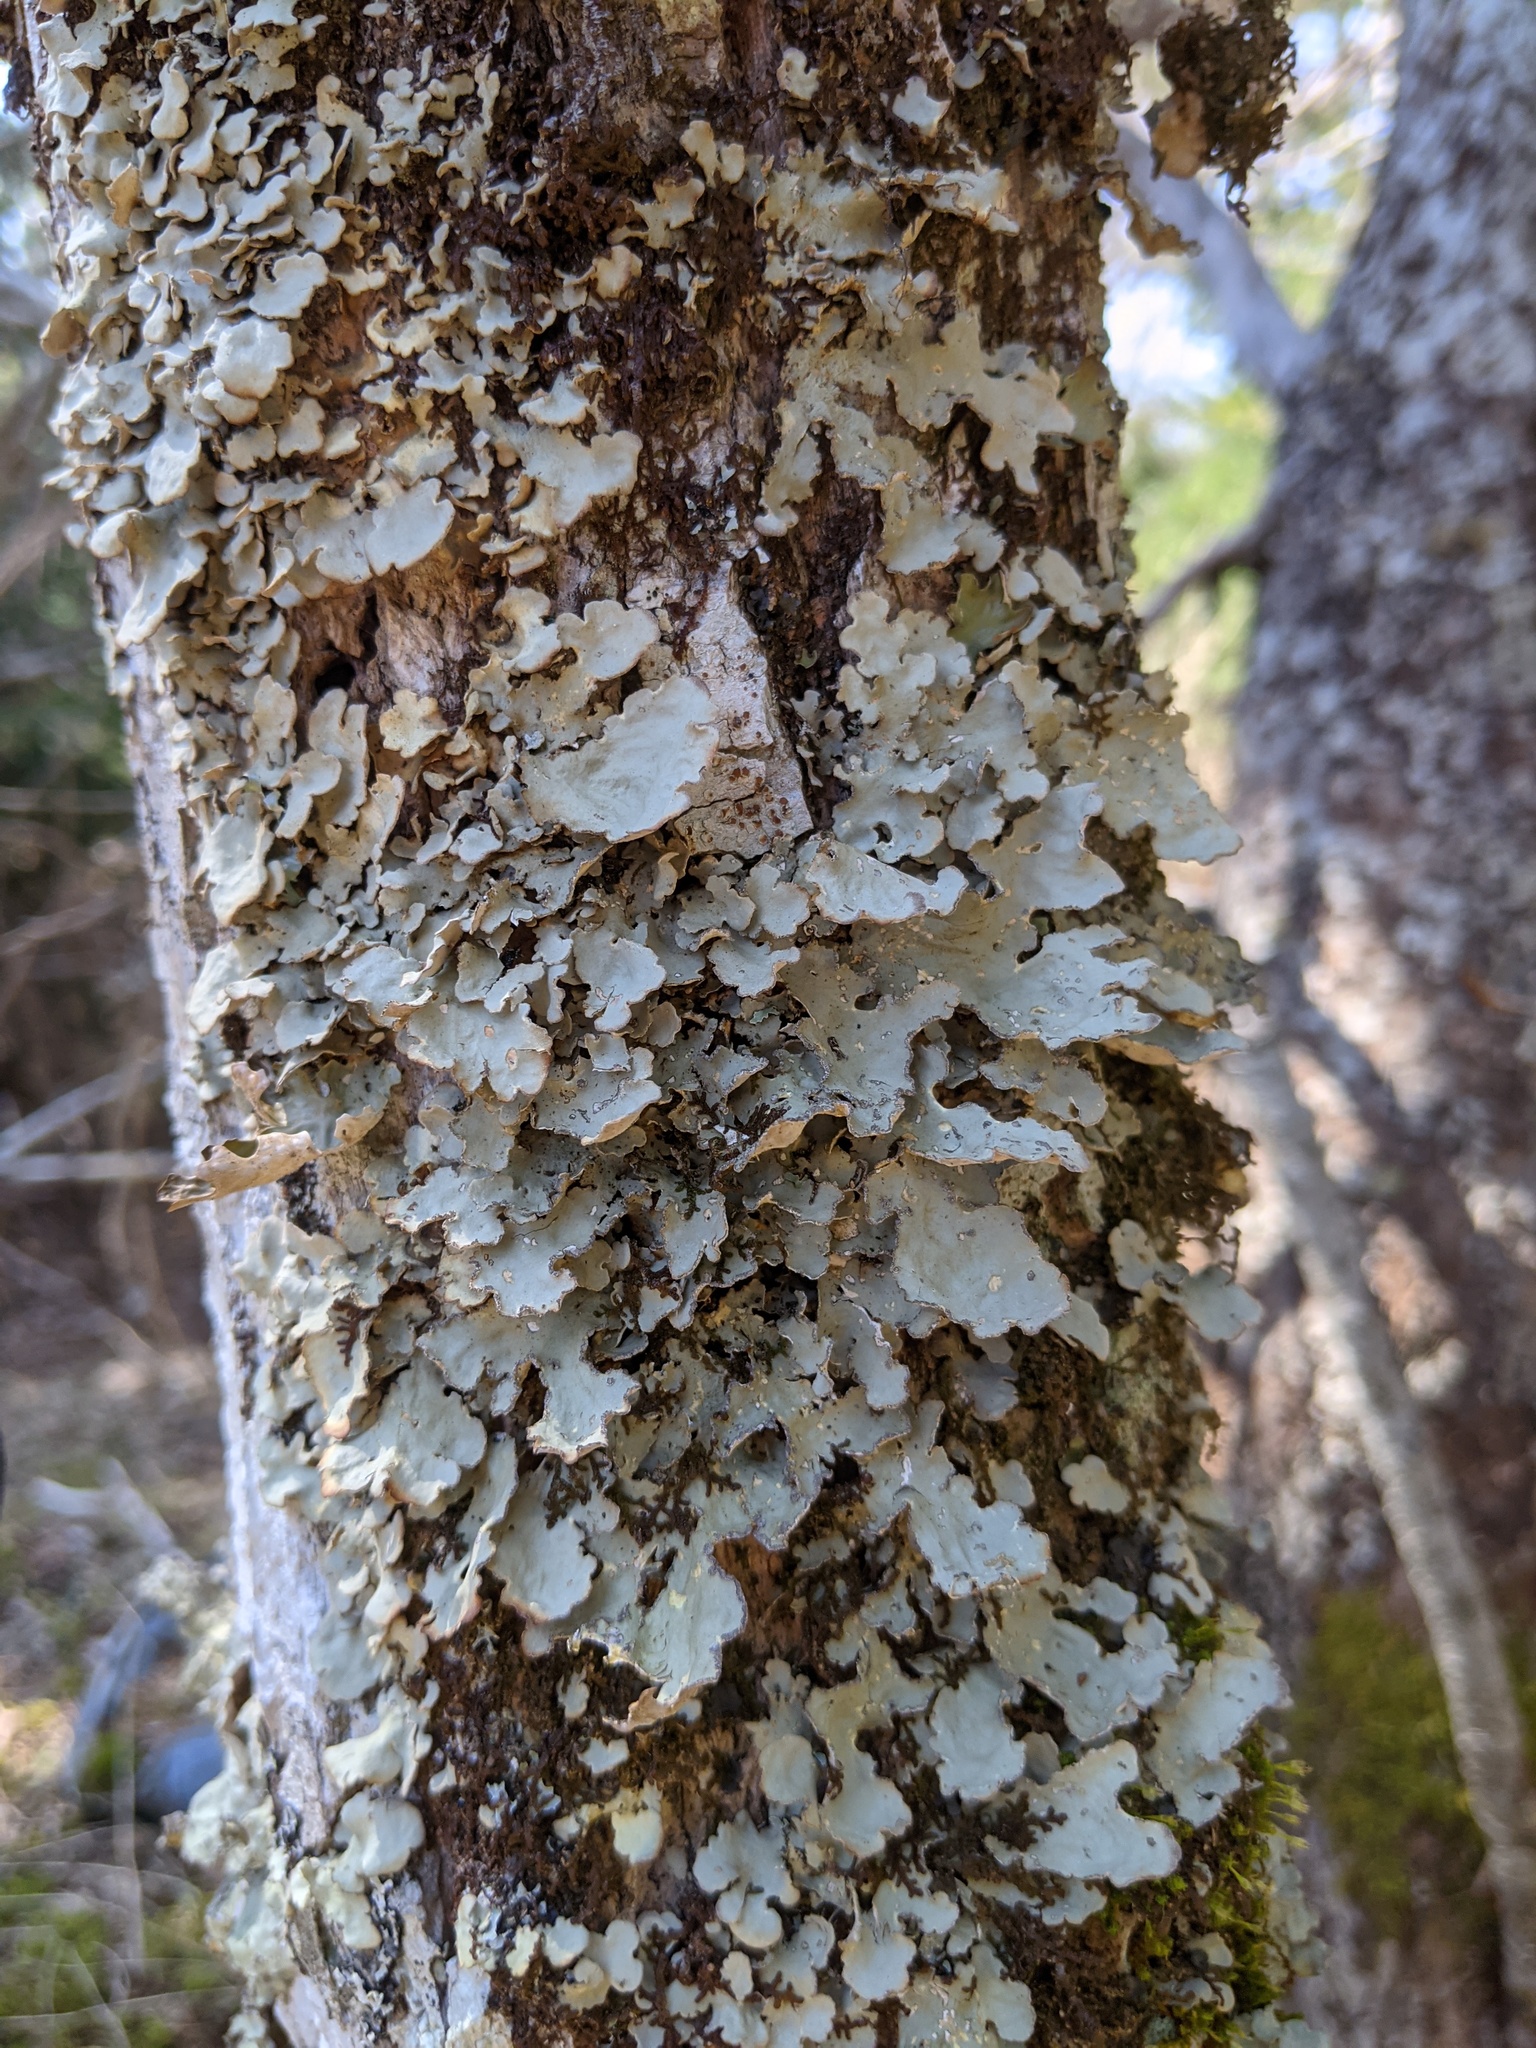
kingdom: Fungi
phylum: Ascomycota
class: Lecanoromycetes
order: Peltigerales
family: Lobariaceae
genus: Lobarina
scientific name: Lobarina scrobiculata
